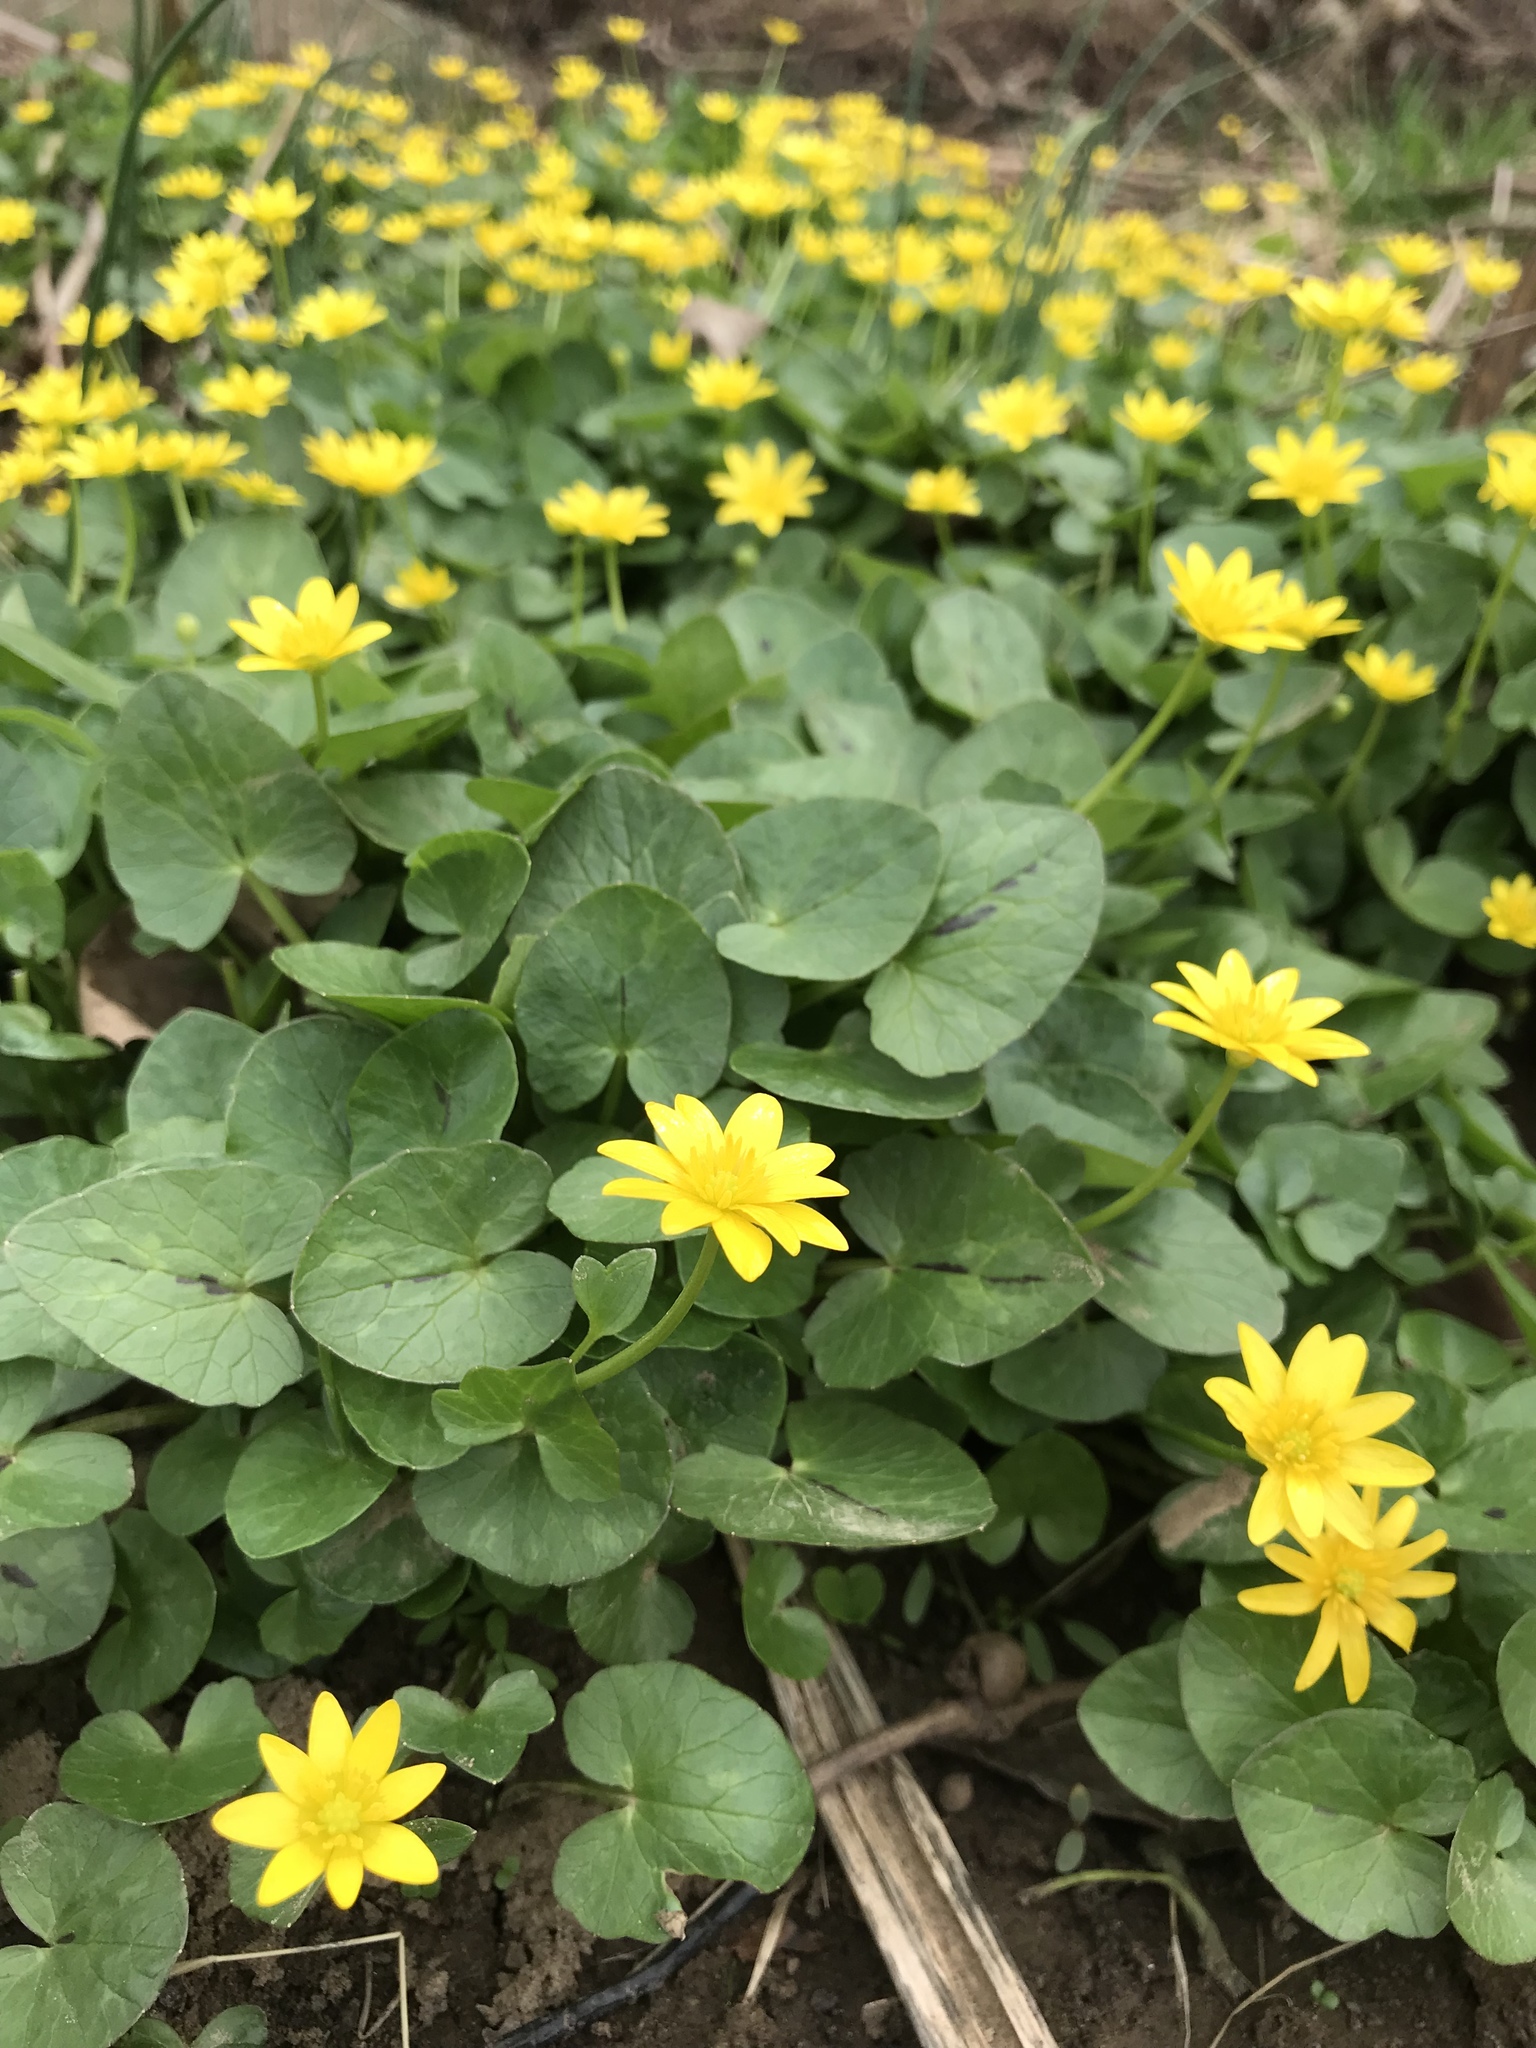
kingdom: Plantae
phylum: Tracheophyta
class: Magnoliopsida
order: Ranunculales
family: Ranunculaceae
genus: Ficaria
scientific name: Ficaria verna
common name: Lesser celandine
